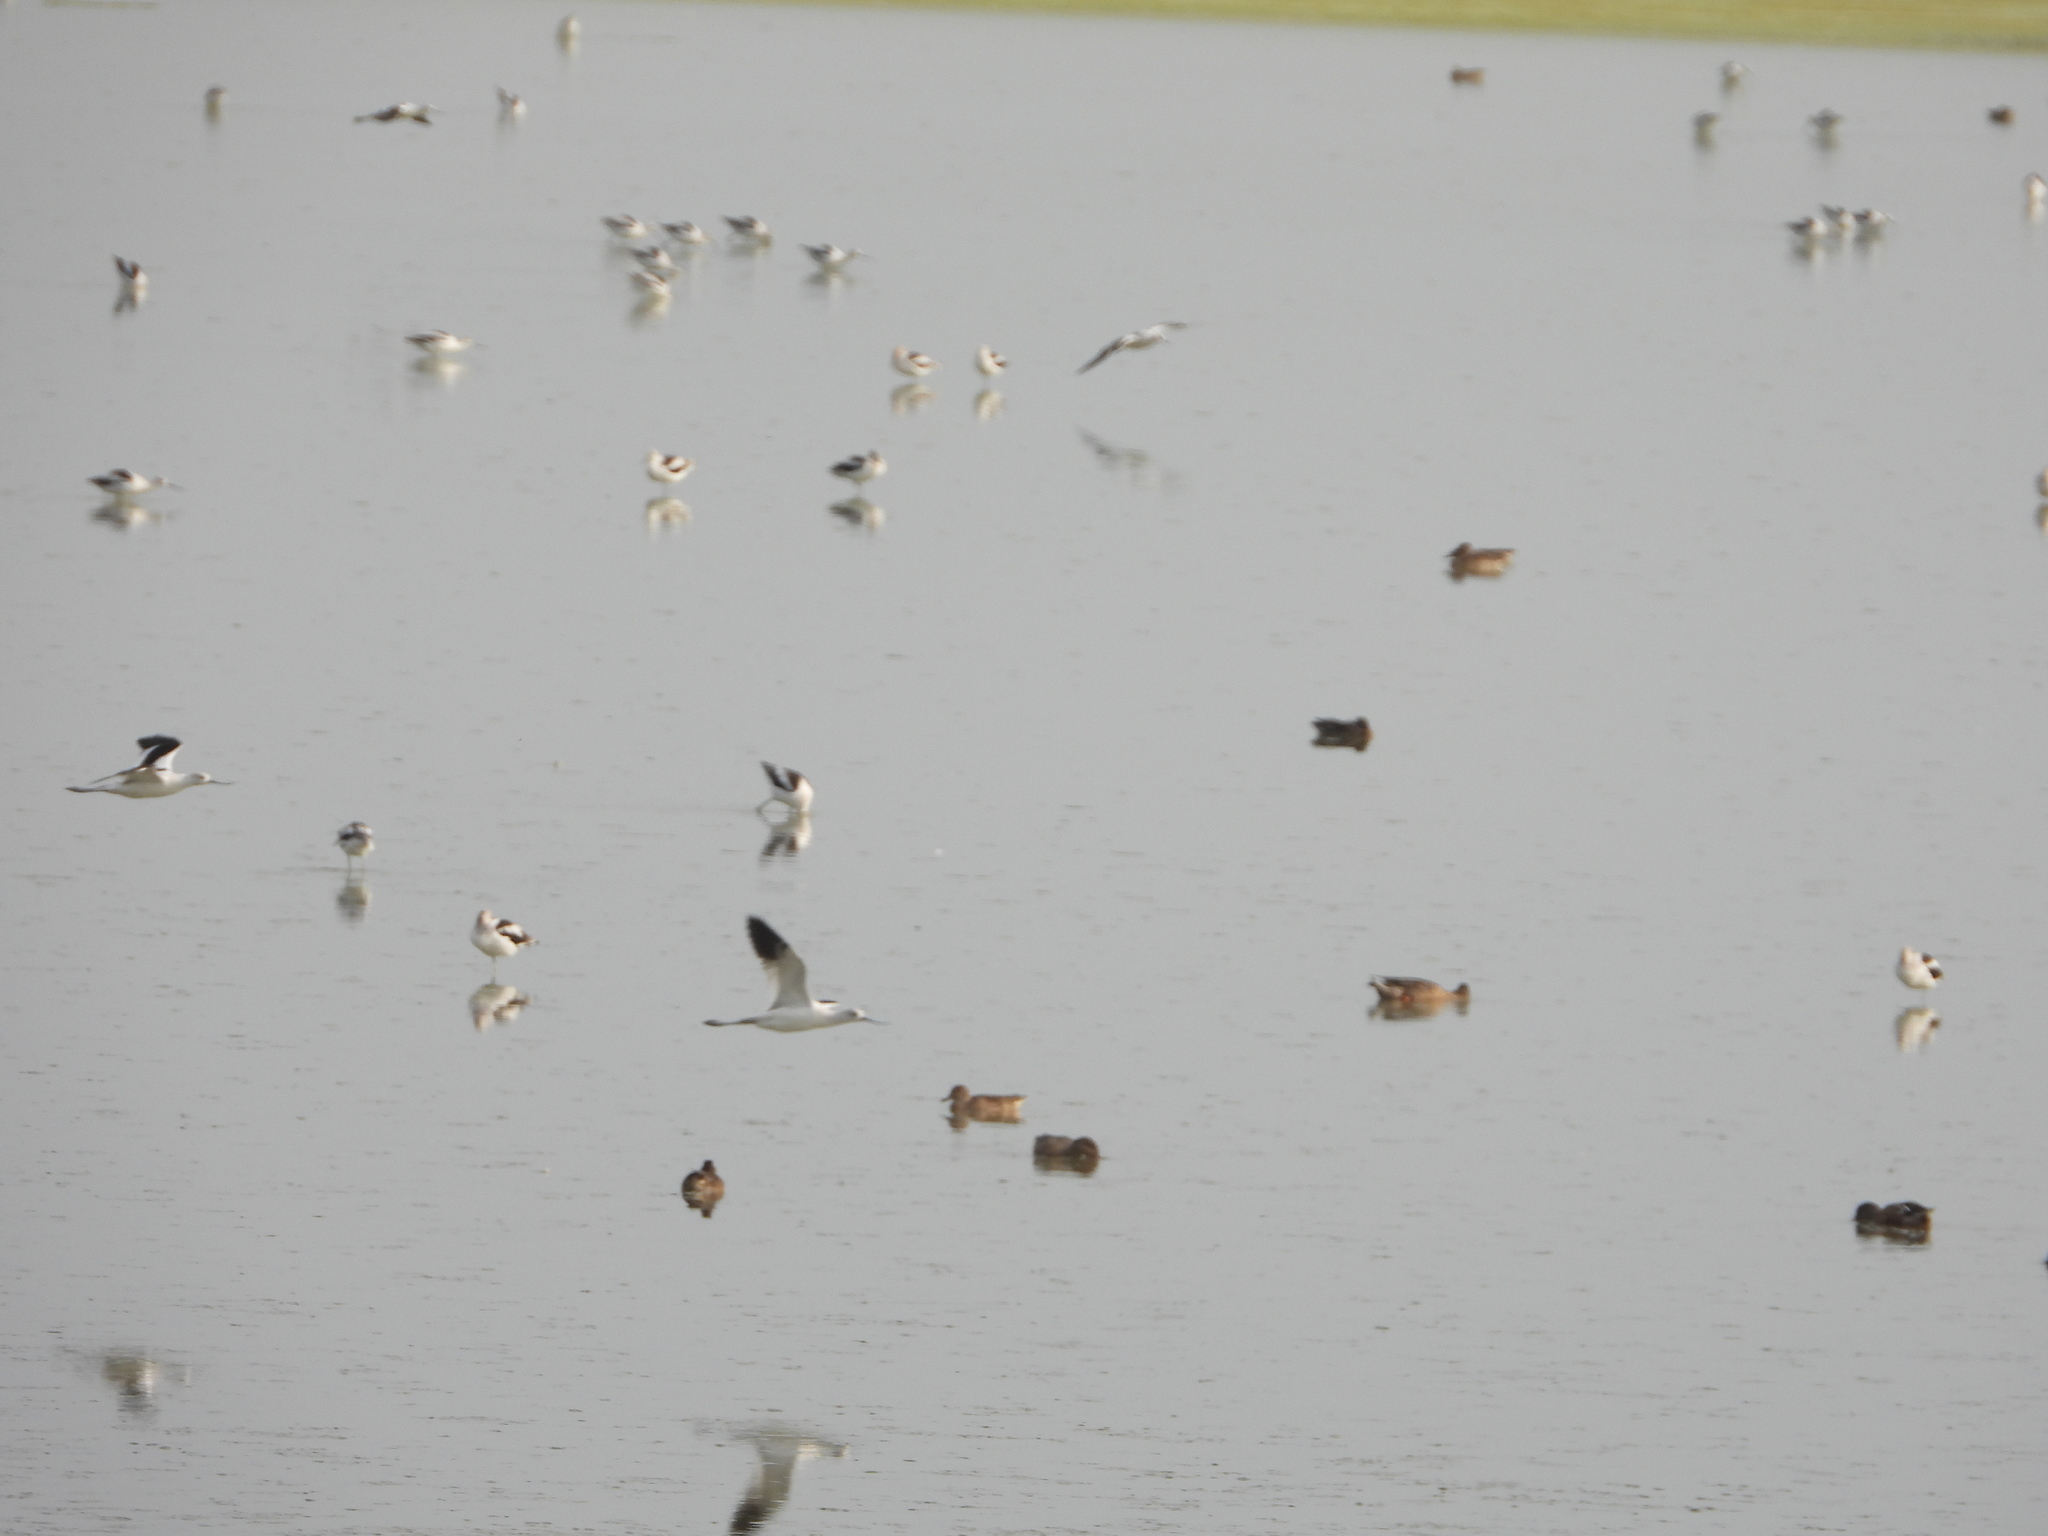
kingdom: Animalia
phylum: Chordata
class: Aves
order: Charadriiformes
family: Recurvirostridae
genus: Recurvirostra
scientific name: Recurvirostra americana
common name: American avocet
